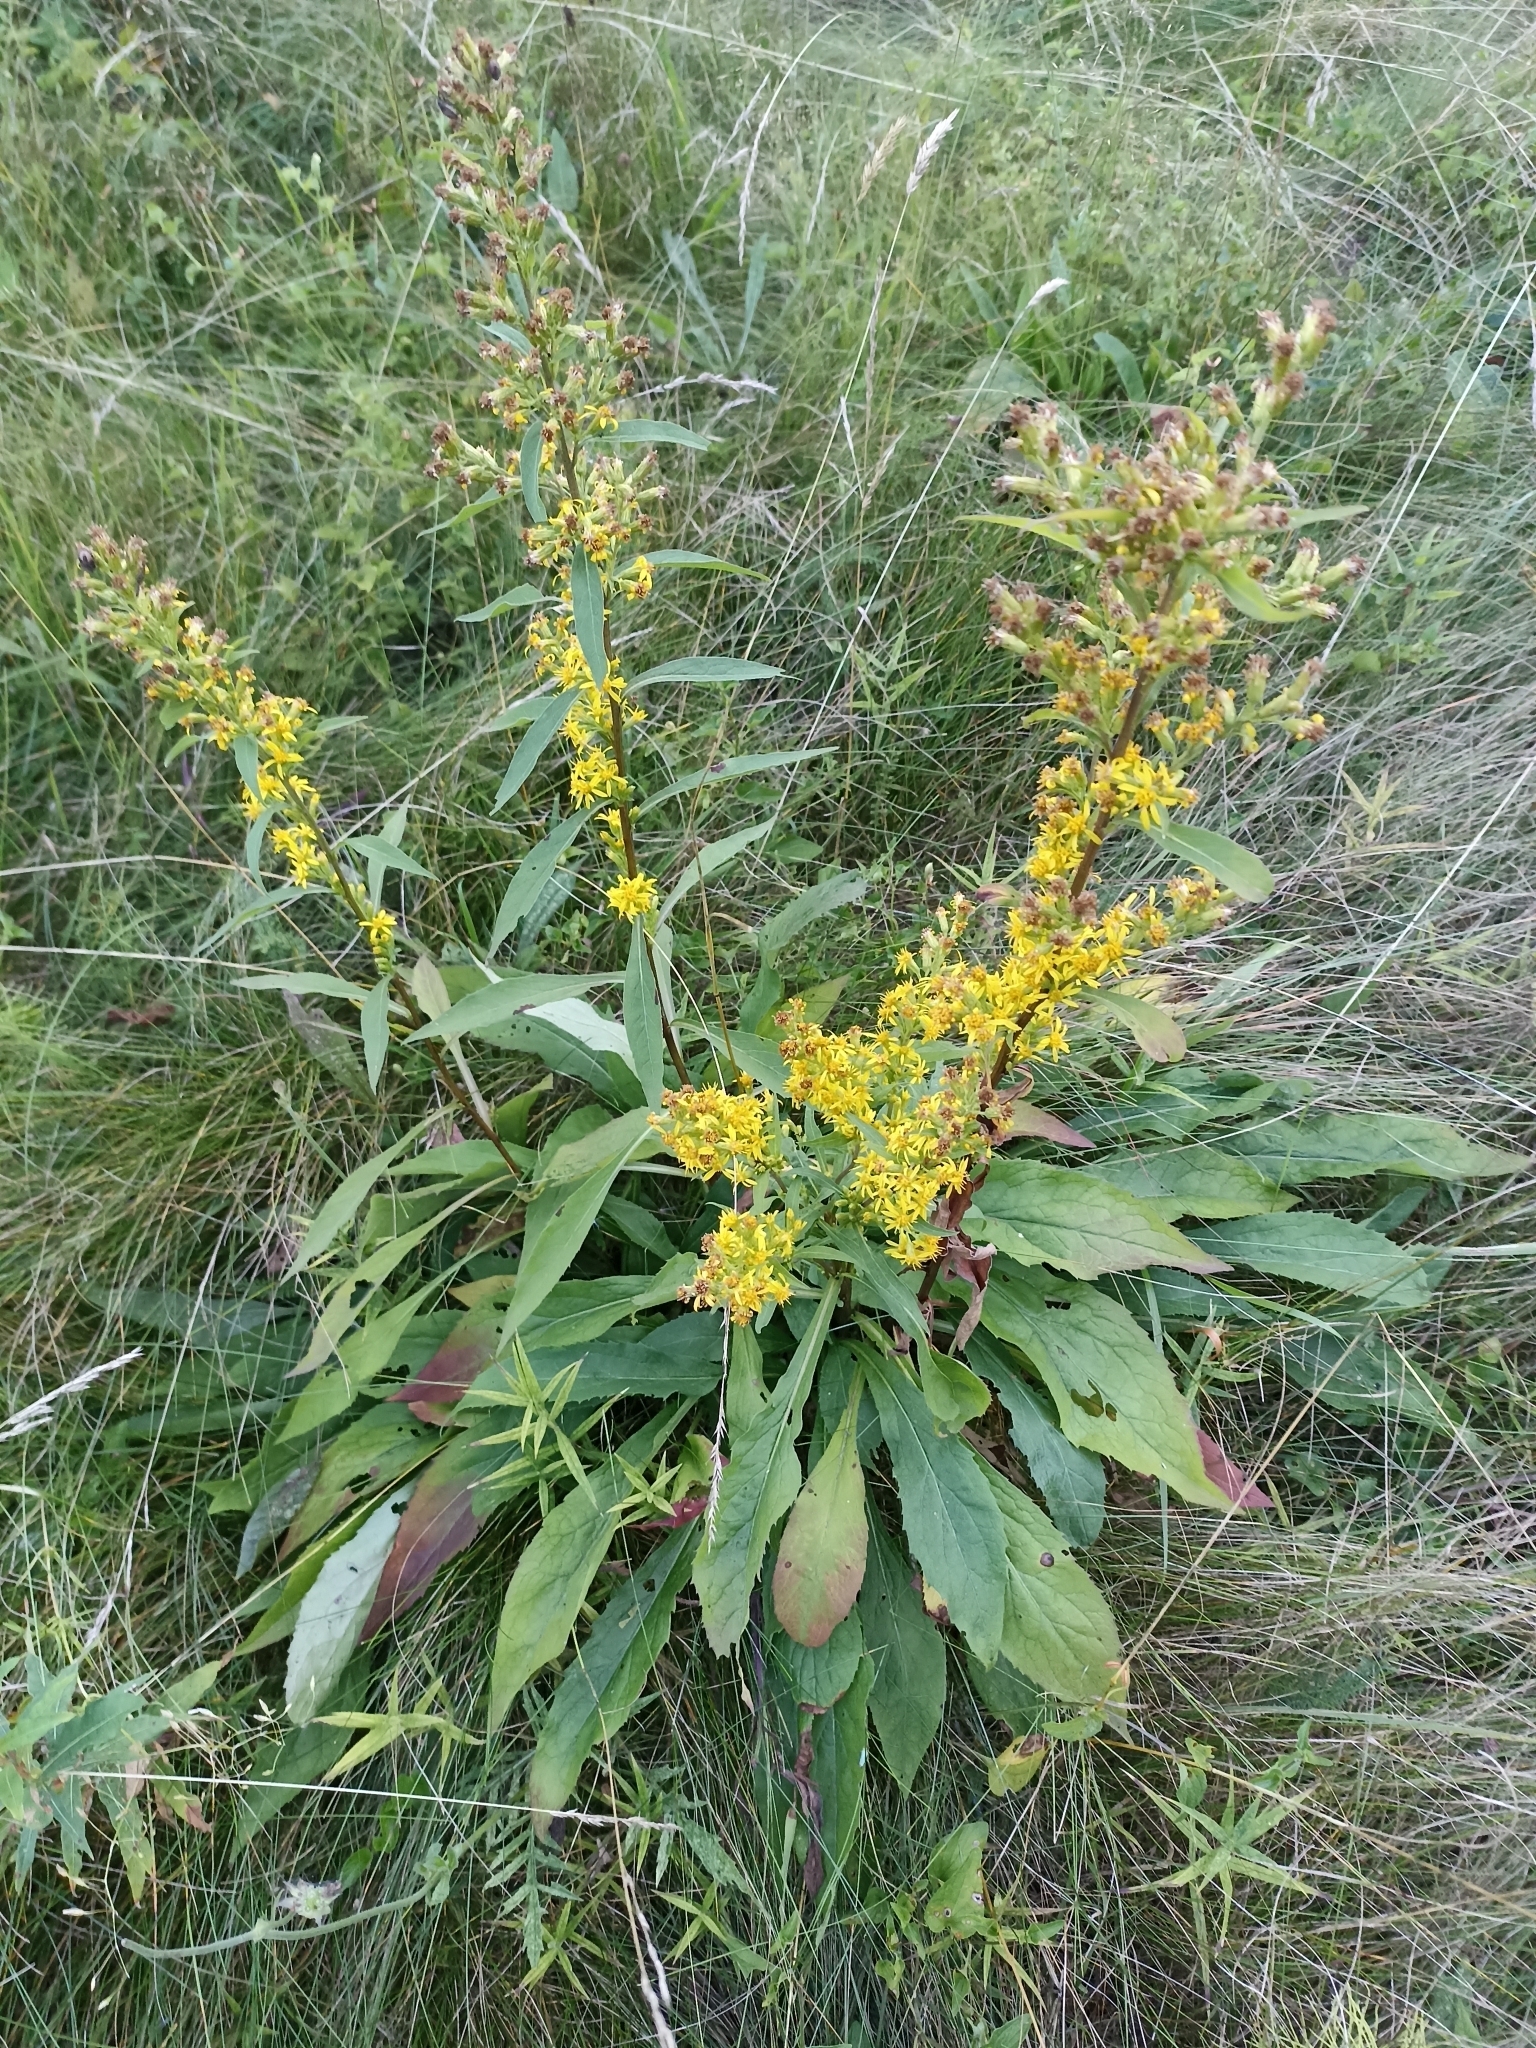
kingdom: Plantae
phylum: Tracheophyta
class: Magnoliopsida
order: Asterales
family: Asteraceae
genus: Solidago
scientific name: Solidago virgaurea
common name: Goldenrod
